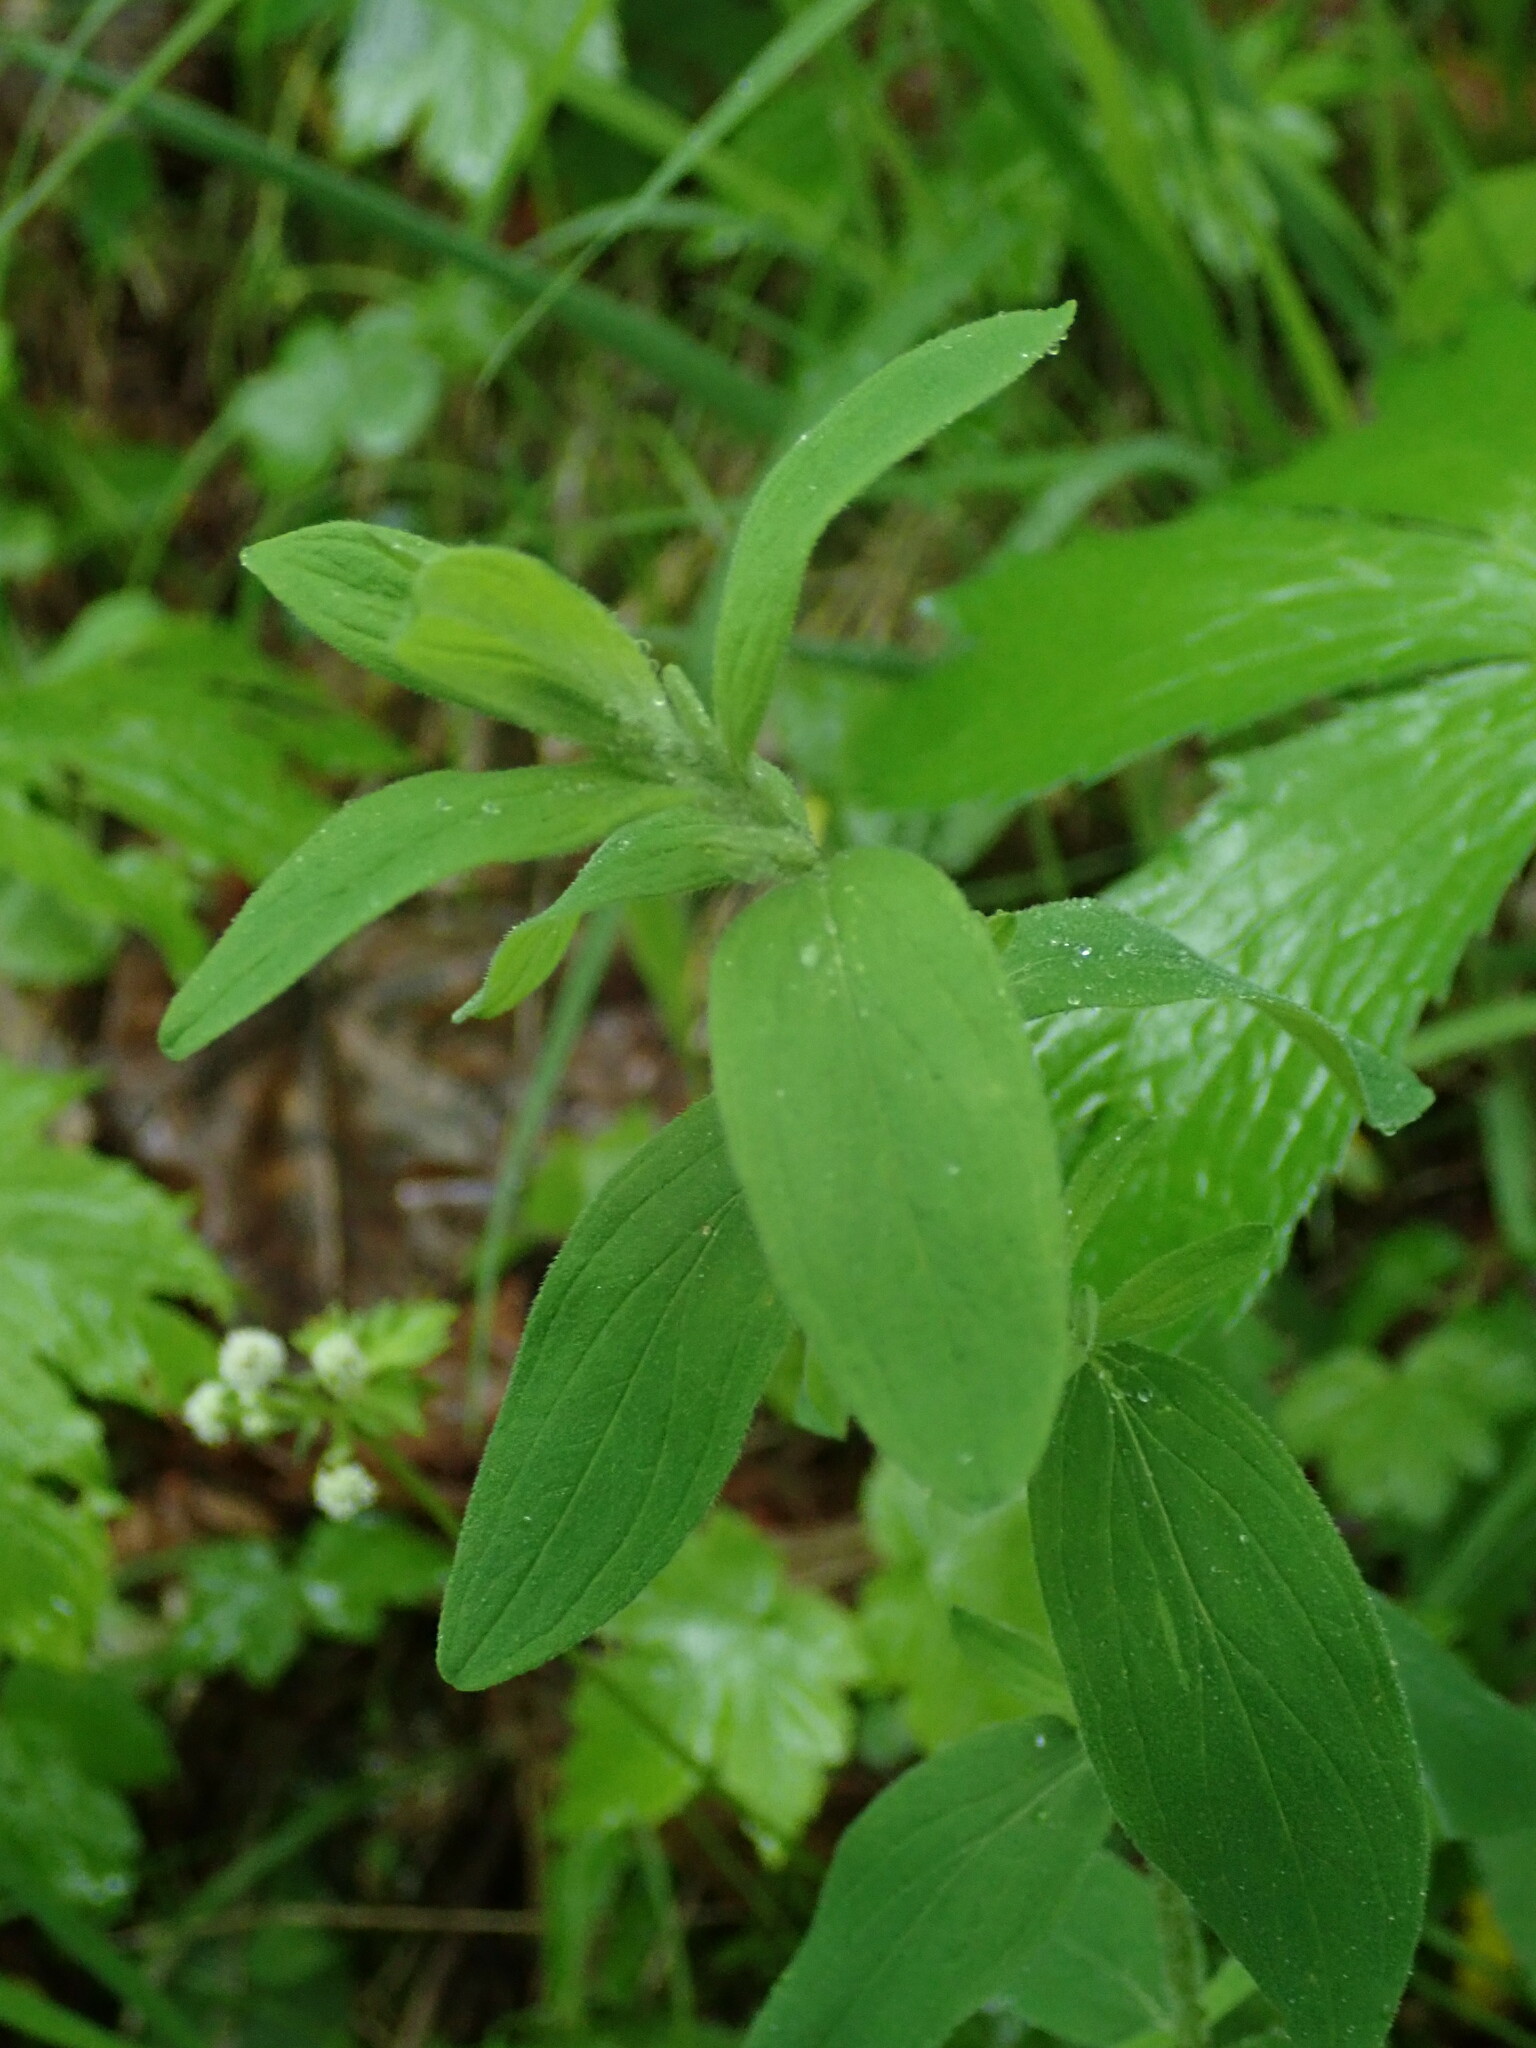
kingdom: Plantae
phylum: Tracheophyta
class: Magnoliopsida
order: Malpighiales
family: Hypericaceae
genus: Hypericum
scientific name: Hypericum hirsutum
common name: Hairy st. john's-wort
